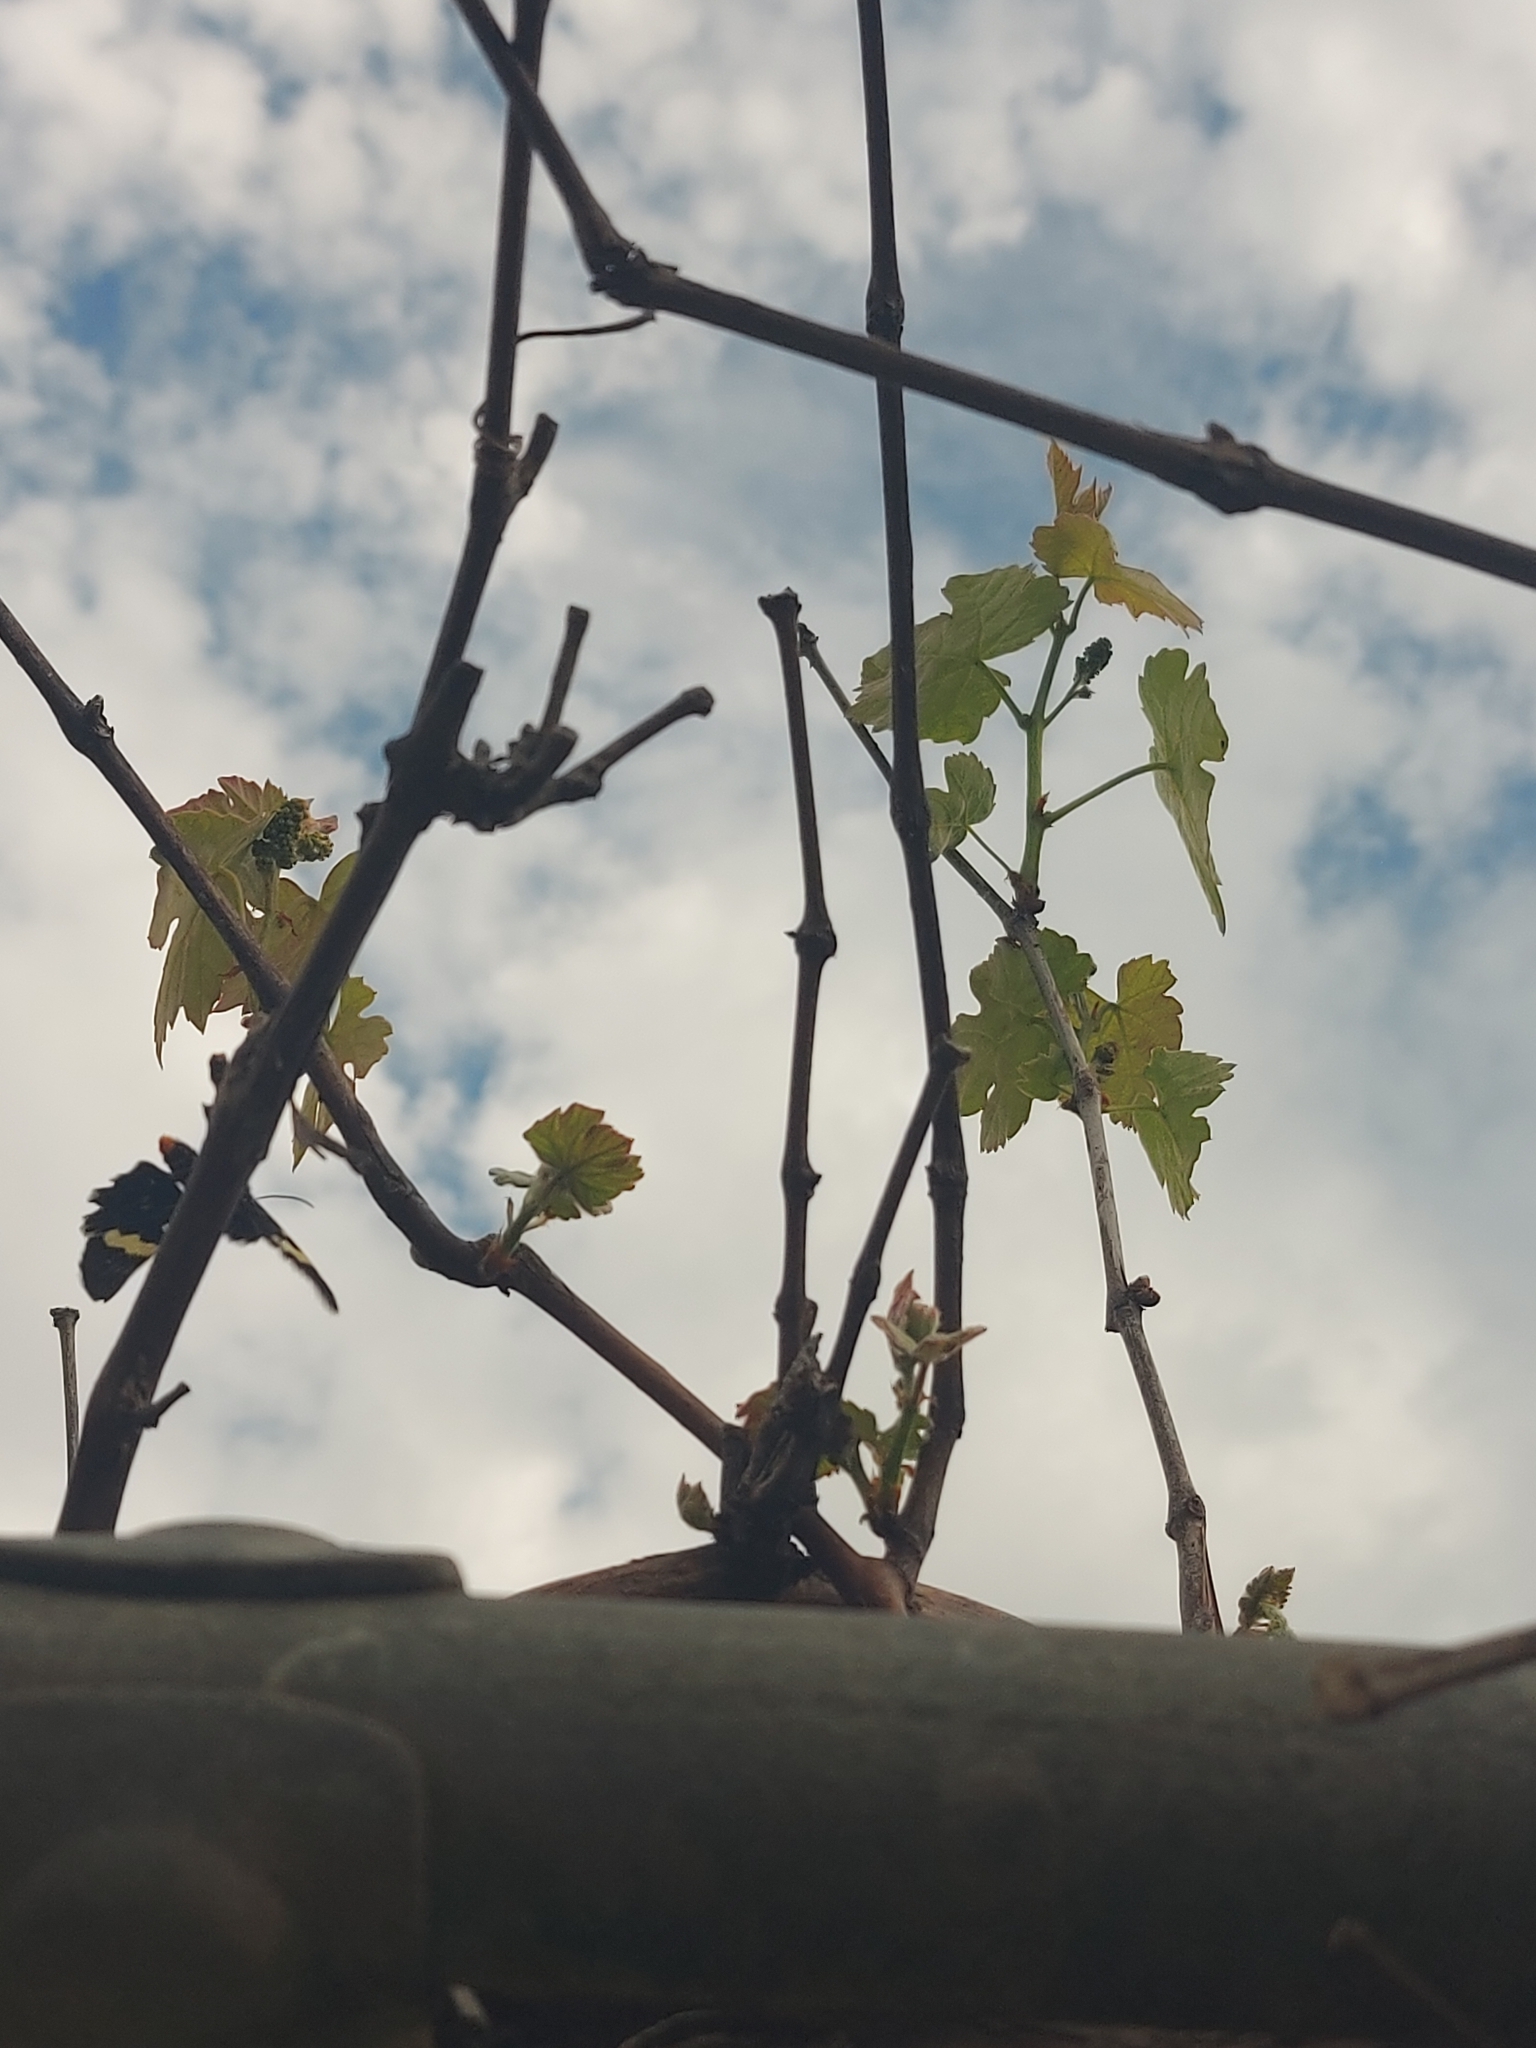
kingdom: Animalia
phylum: Arthropoda
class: Insecta
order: Lepidoptera
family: Noctuidae
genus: Phalaenoides
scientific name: Phalaenoides glycinae
